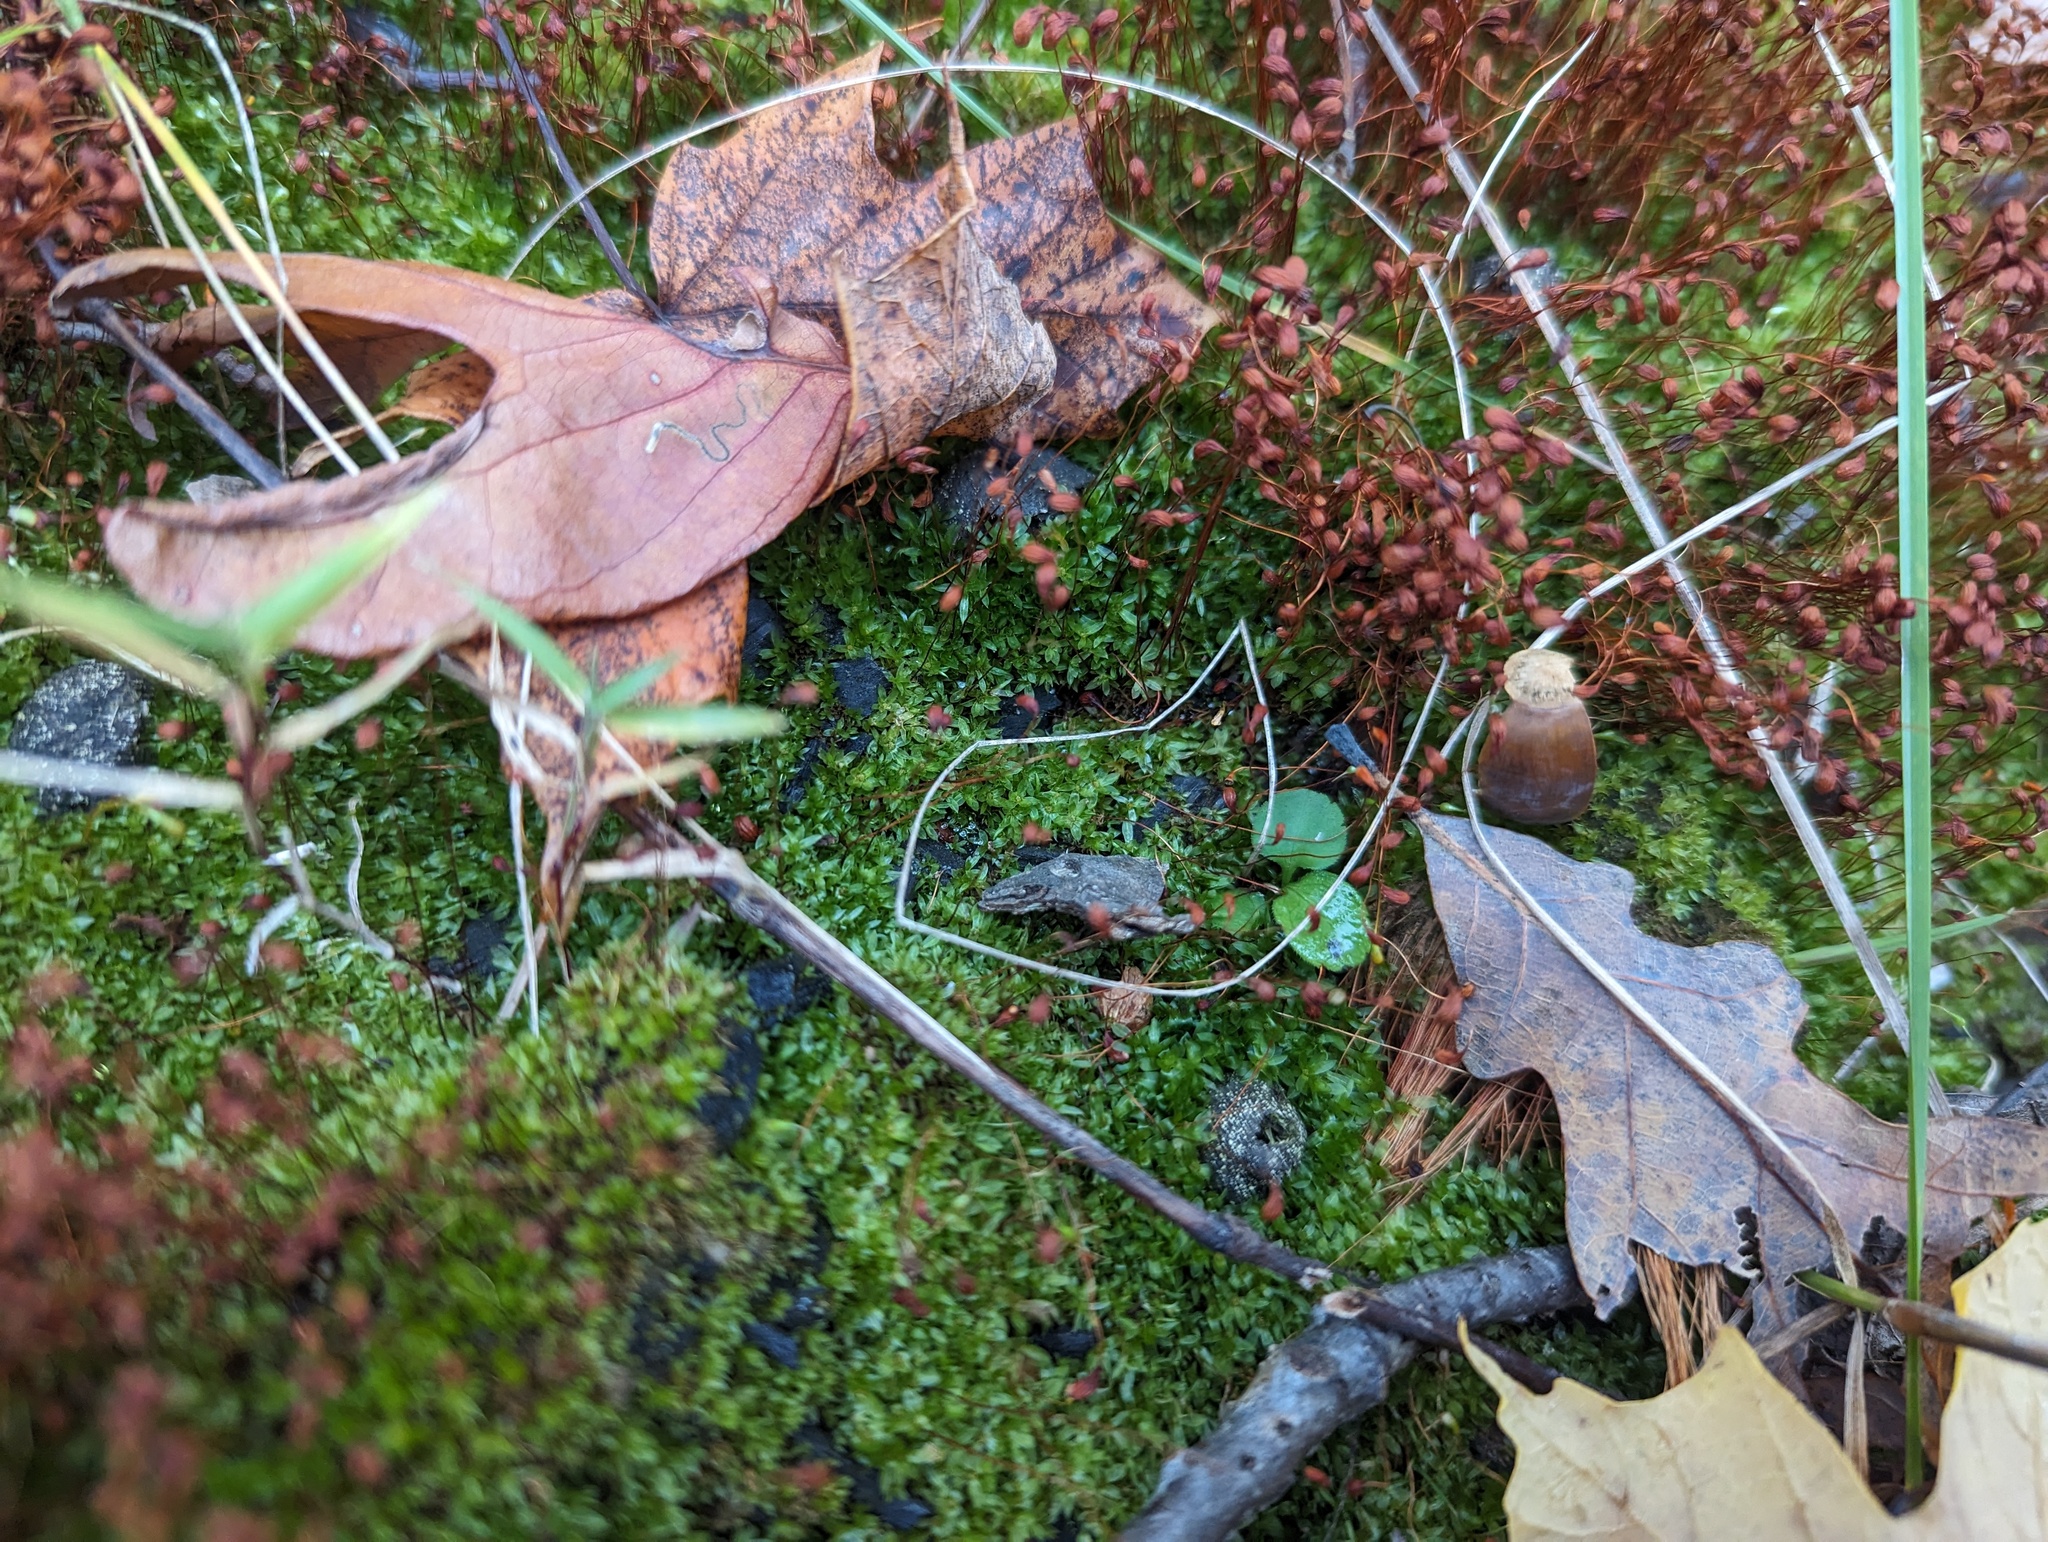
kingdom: Plantae
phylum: Bryophyta
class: Bryopsida
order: Funariales
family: Funariaceae
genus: Funaria
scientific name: Funaria hygrometrica
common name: Common cord moss
